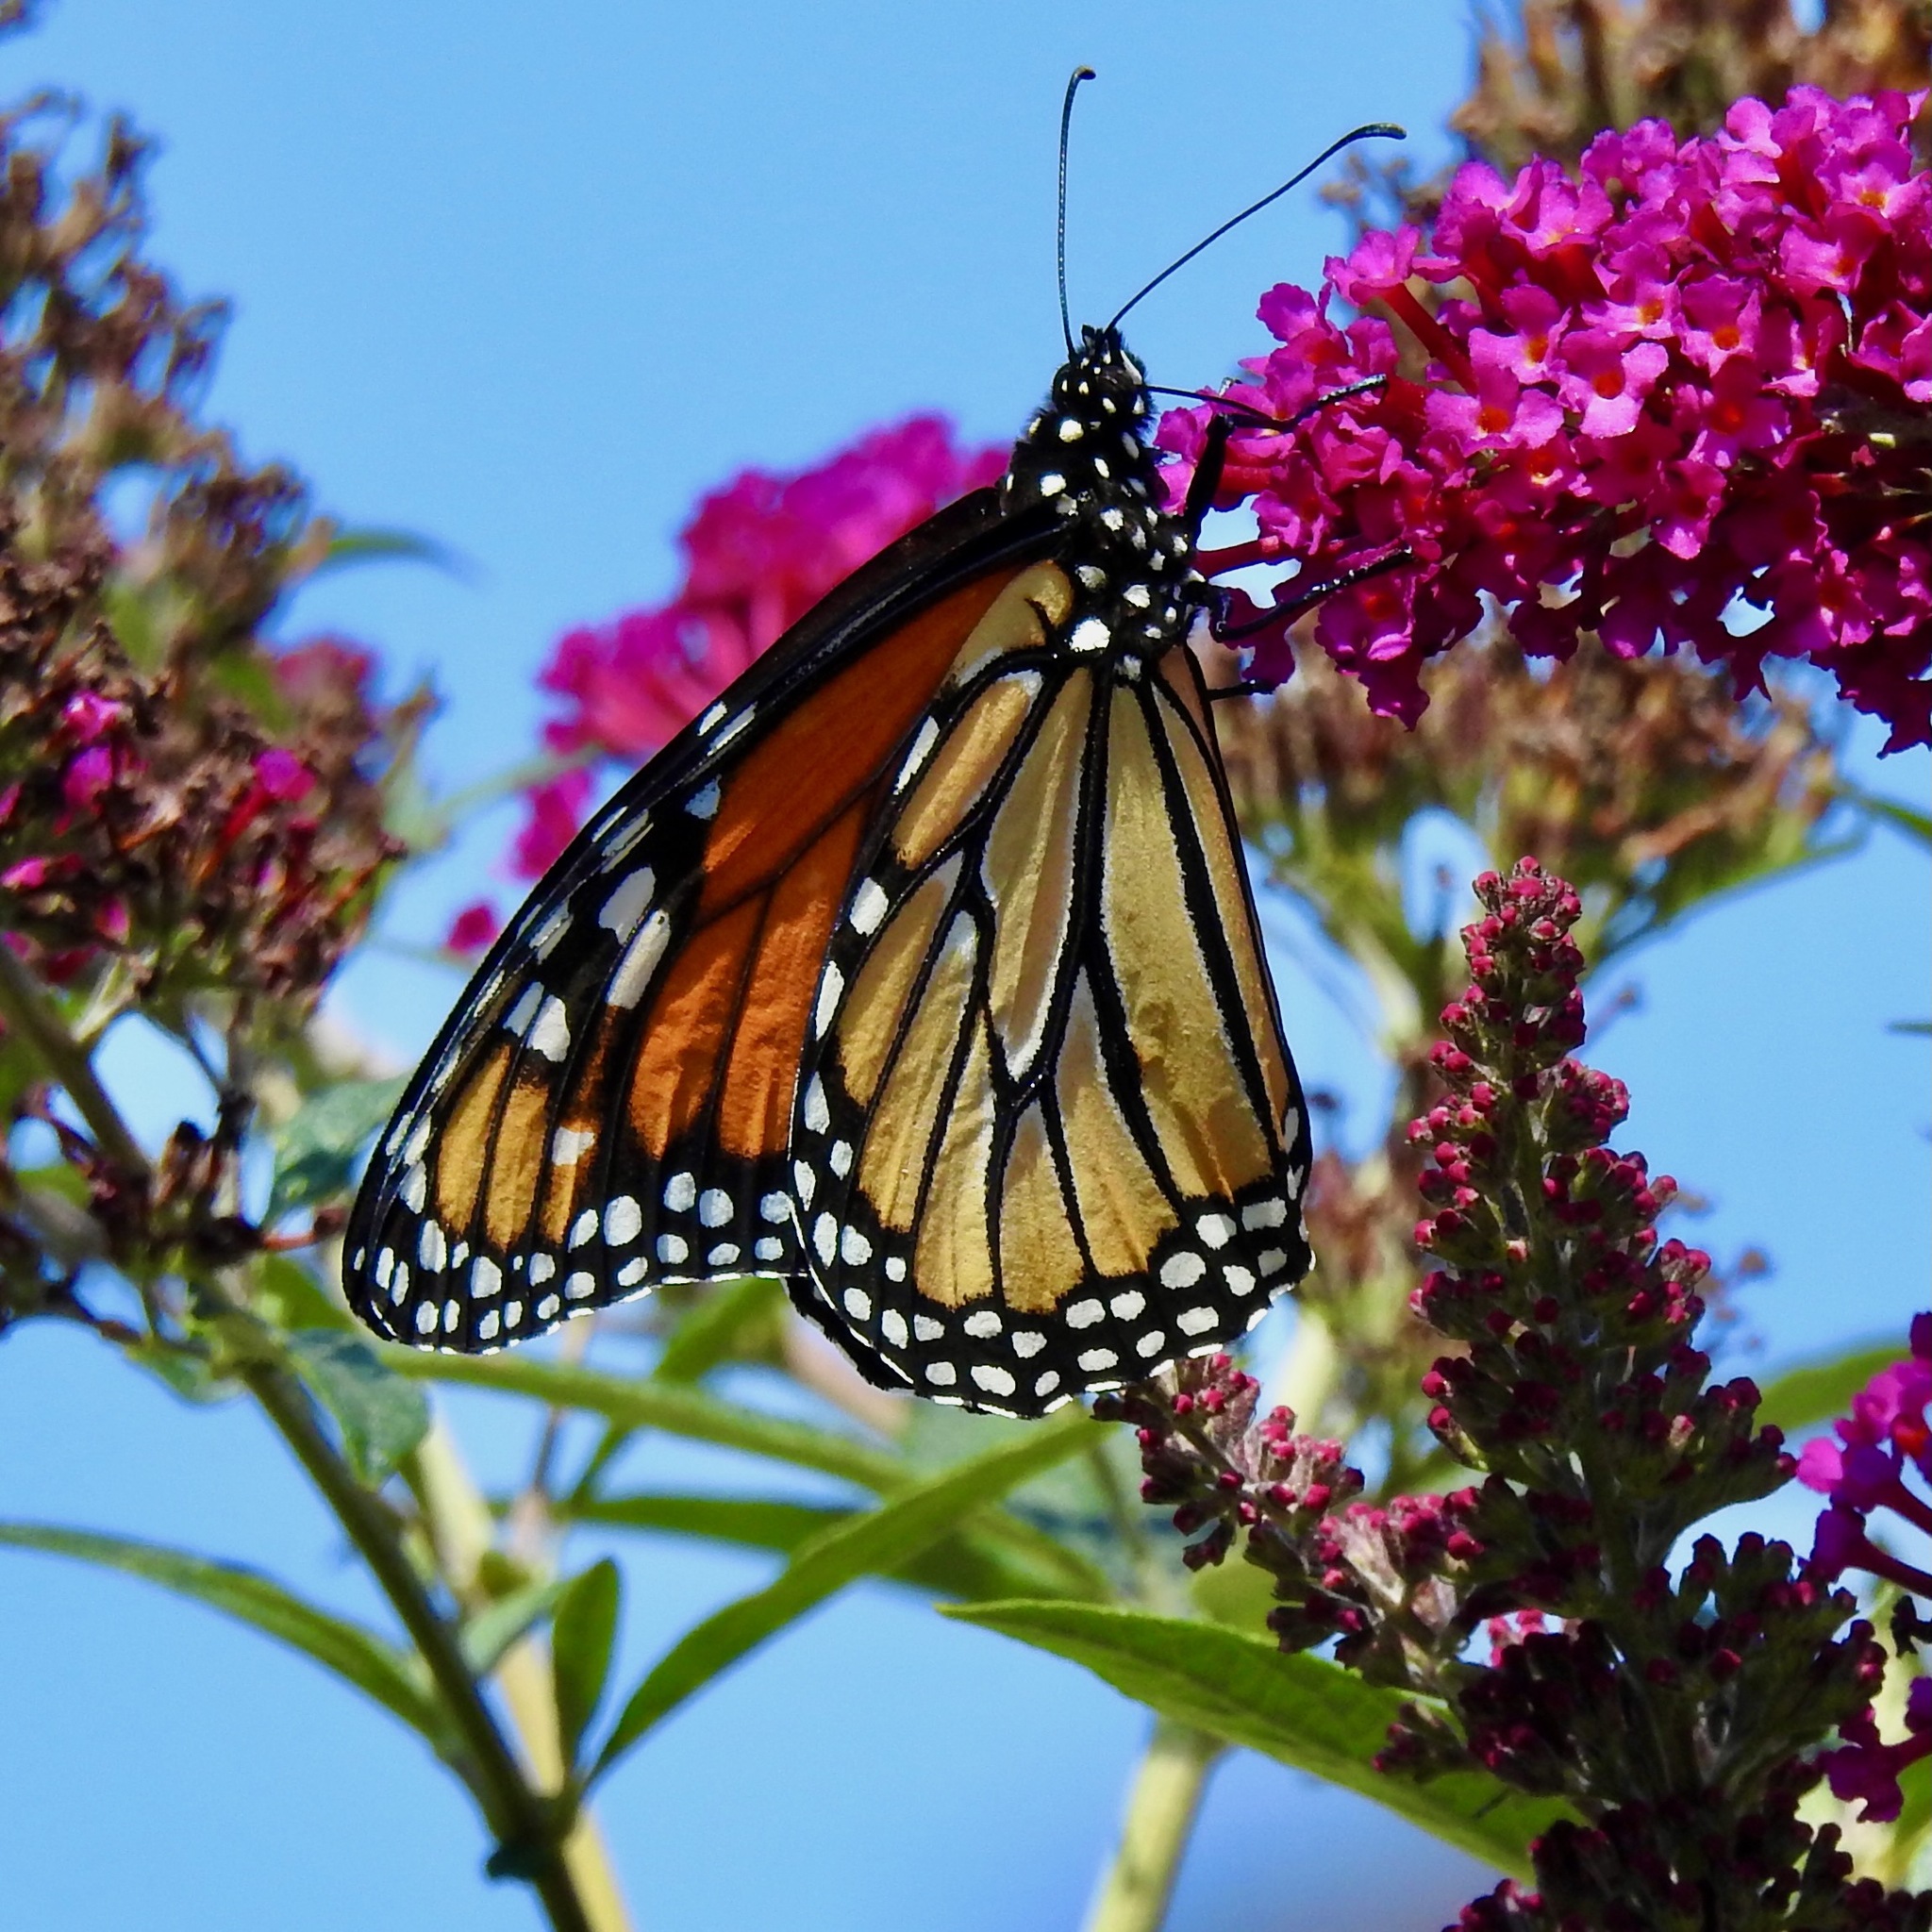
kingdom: Animalia
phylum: Arthropoda
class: Insecta
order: Lepidoptera
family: Nymphalidae
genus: Danaus
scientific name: Danaus plexippus
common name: Monarch
